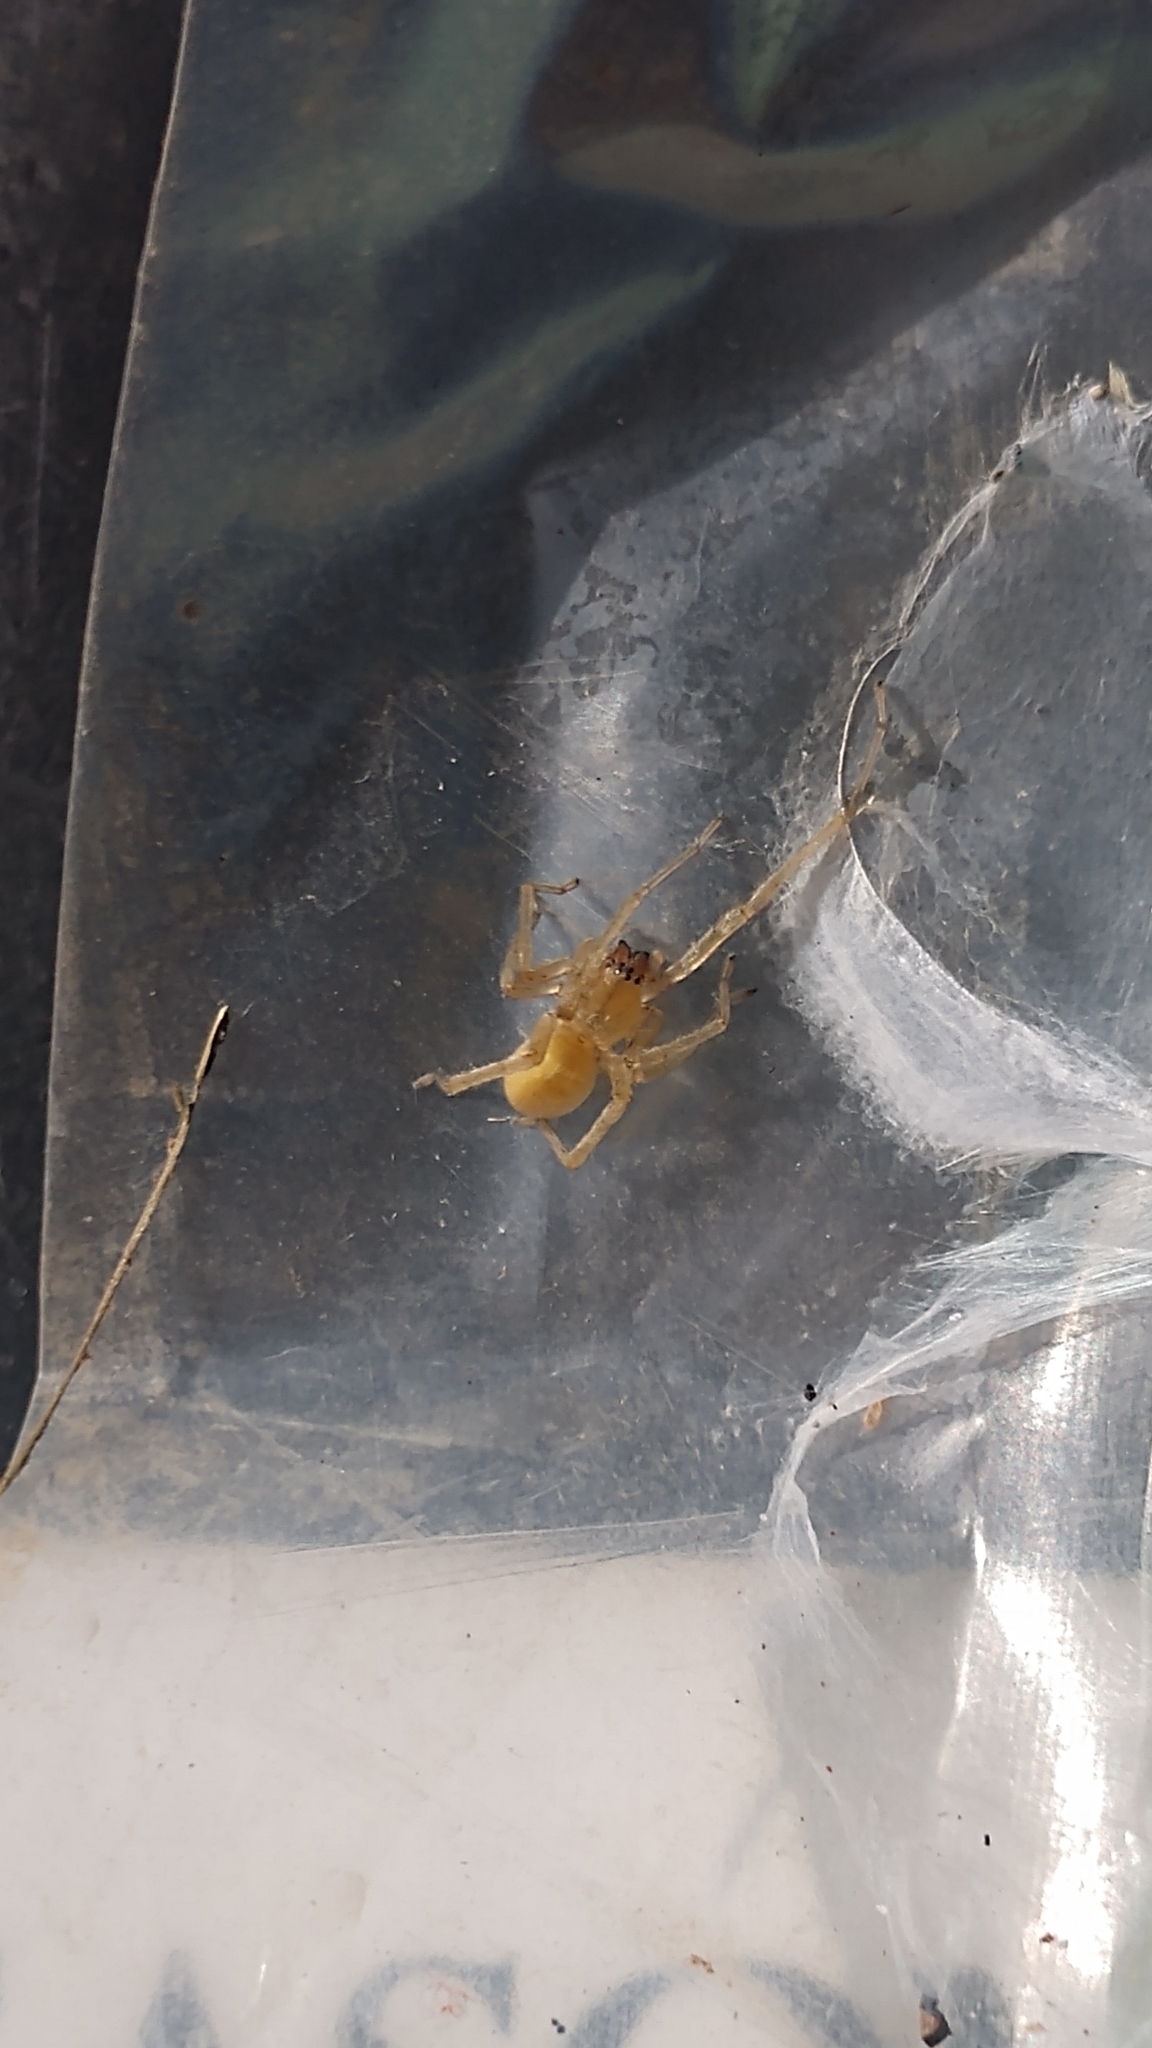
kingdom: Animalia
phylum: Arthropoda
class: Arachnida
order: Araneae
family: Cheiracanthiidae
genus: Cheiracanthium
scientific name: Cheiracanthium mildei
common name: Northern yellow sac spider
